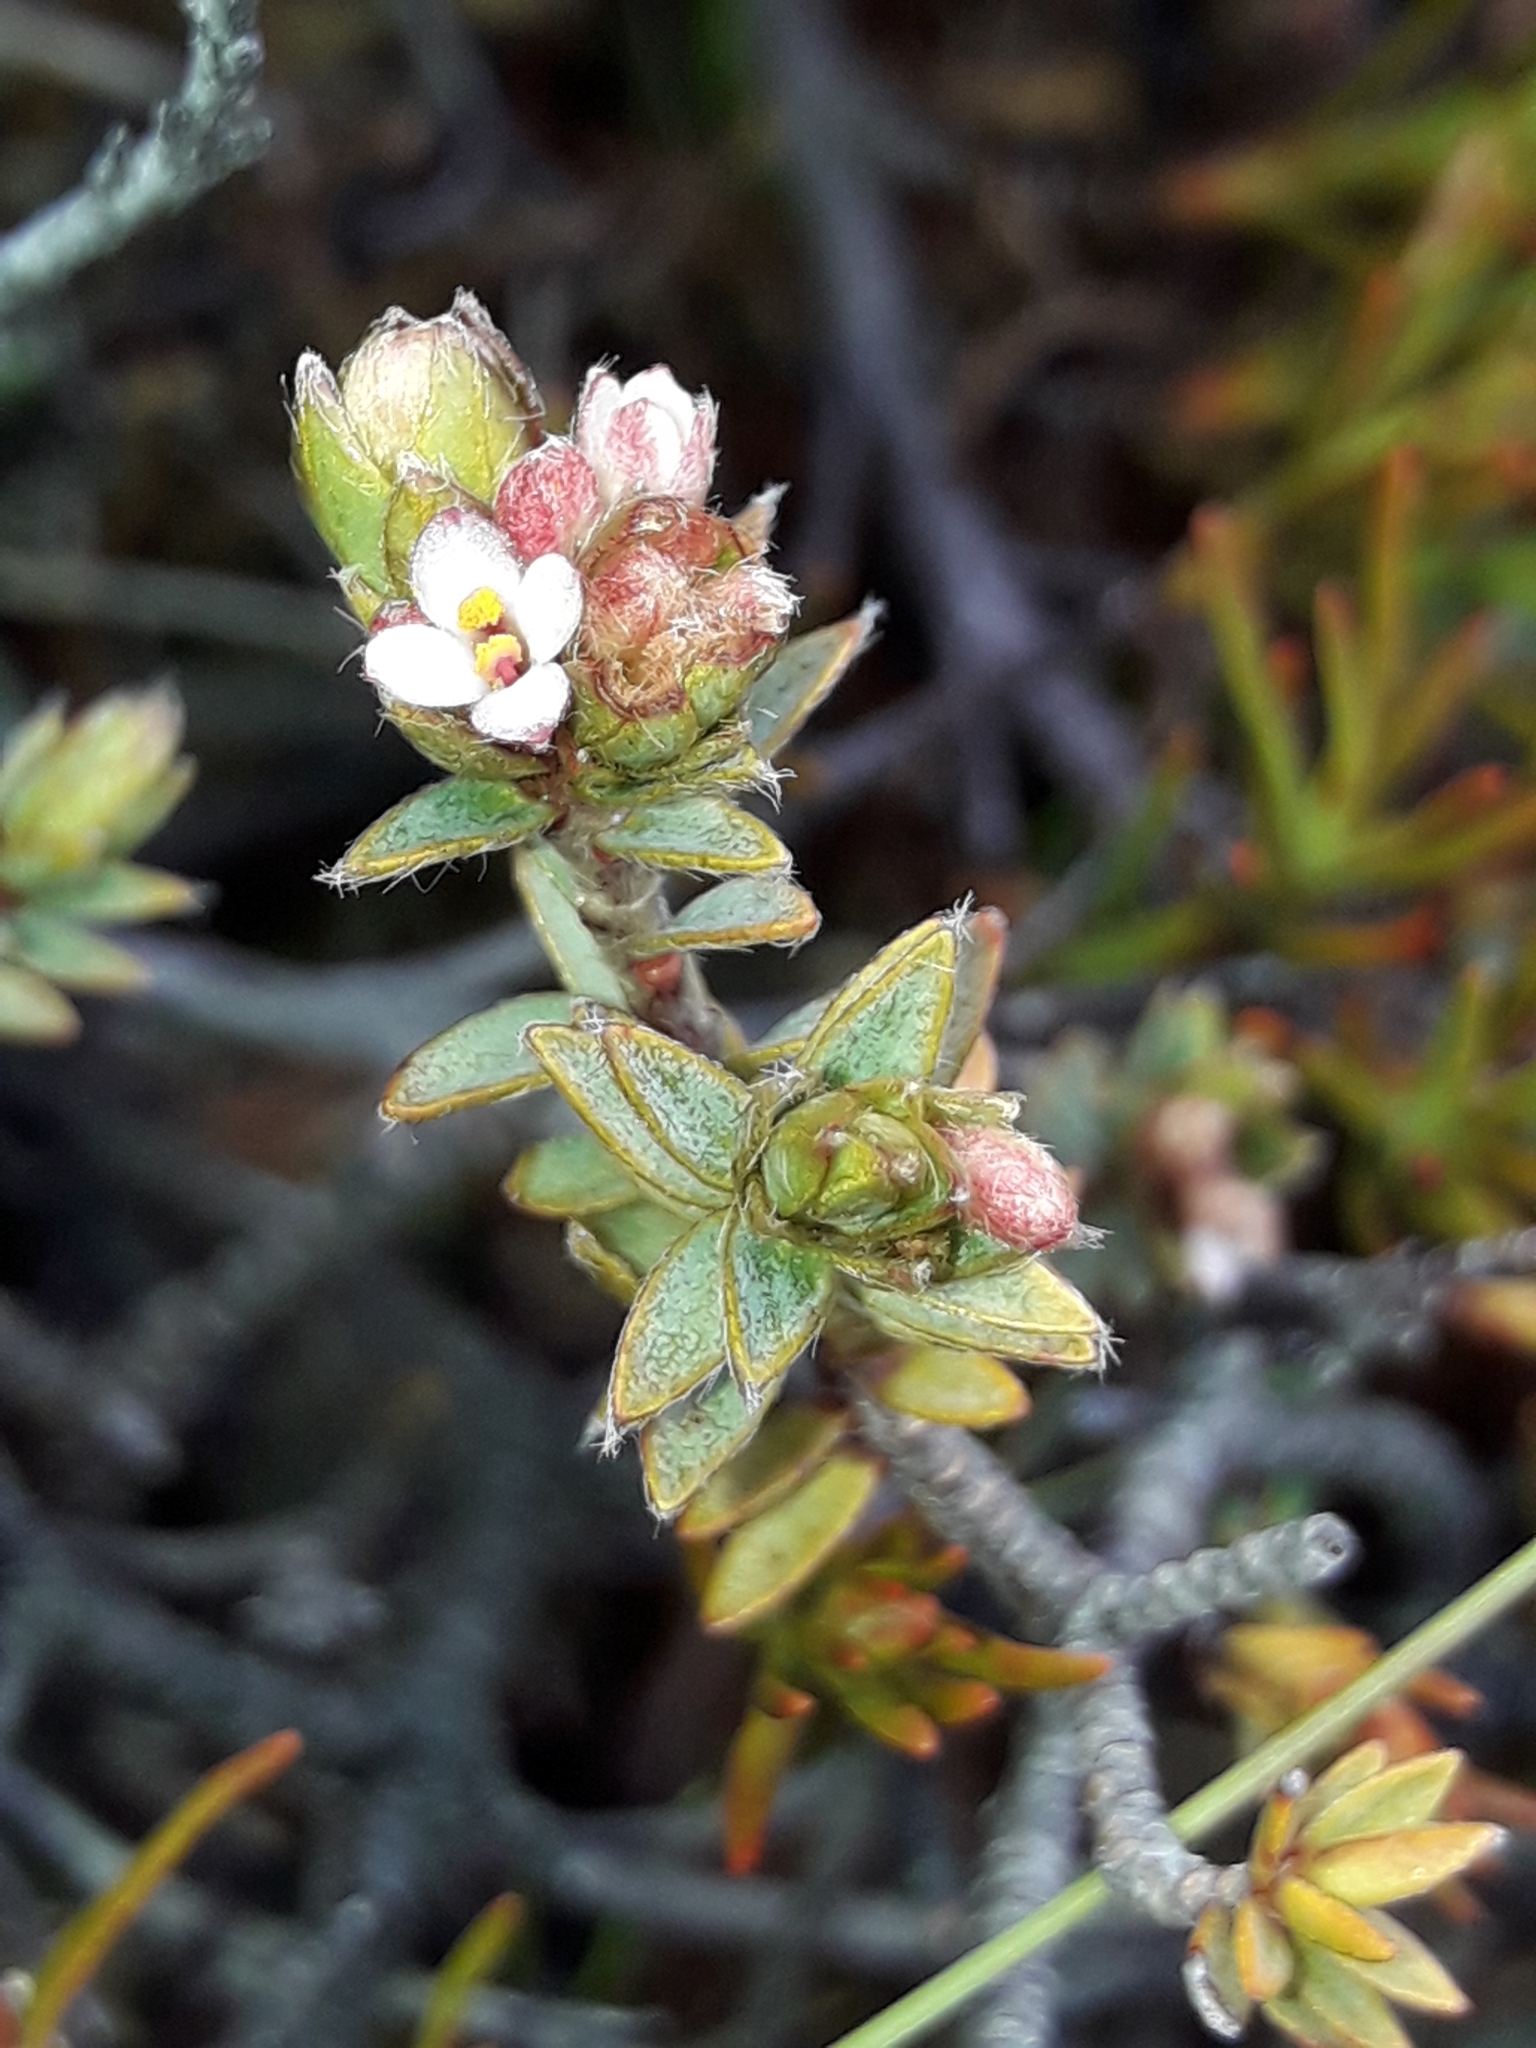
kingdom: Plantae
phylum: Tracheophyta
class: Magnoliopsida
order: Malvales
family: Thymelaeaceae
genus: Pimelea
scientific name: Pimelea oreophila
